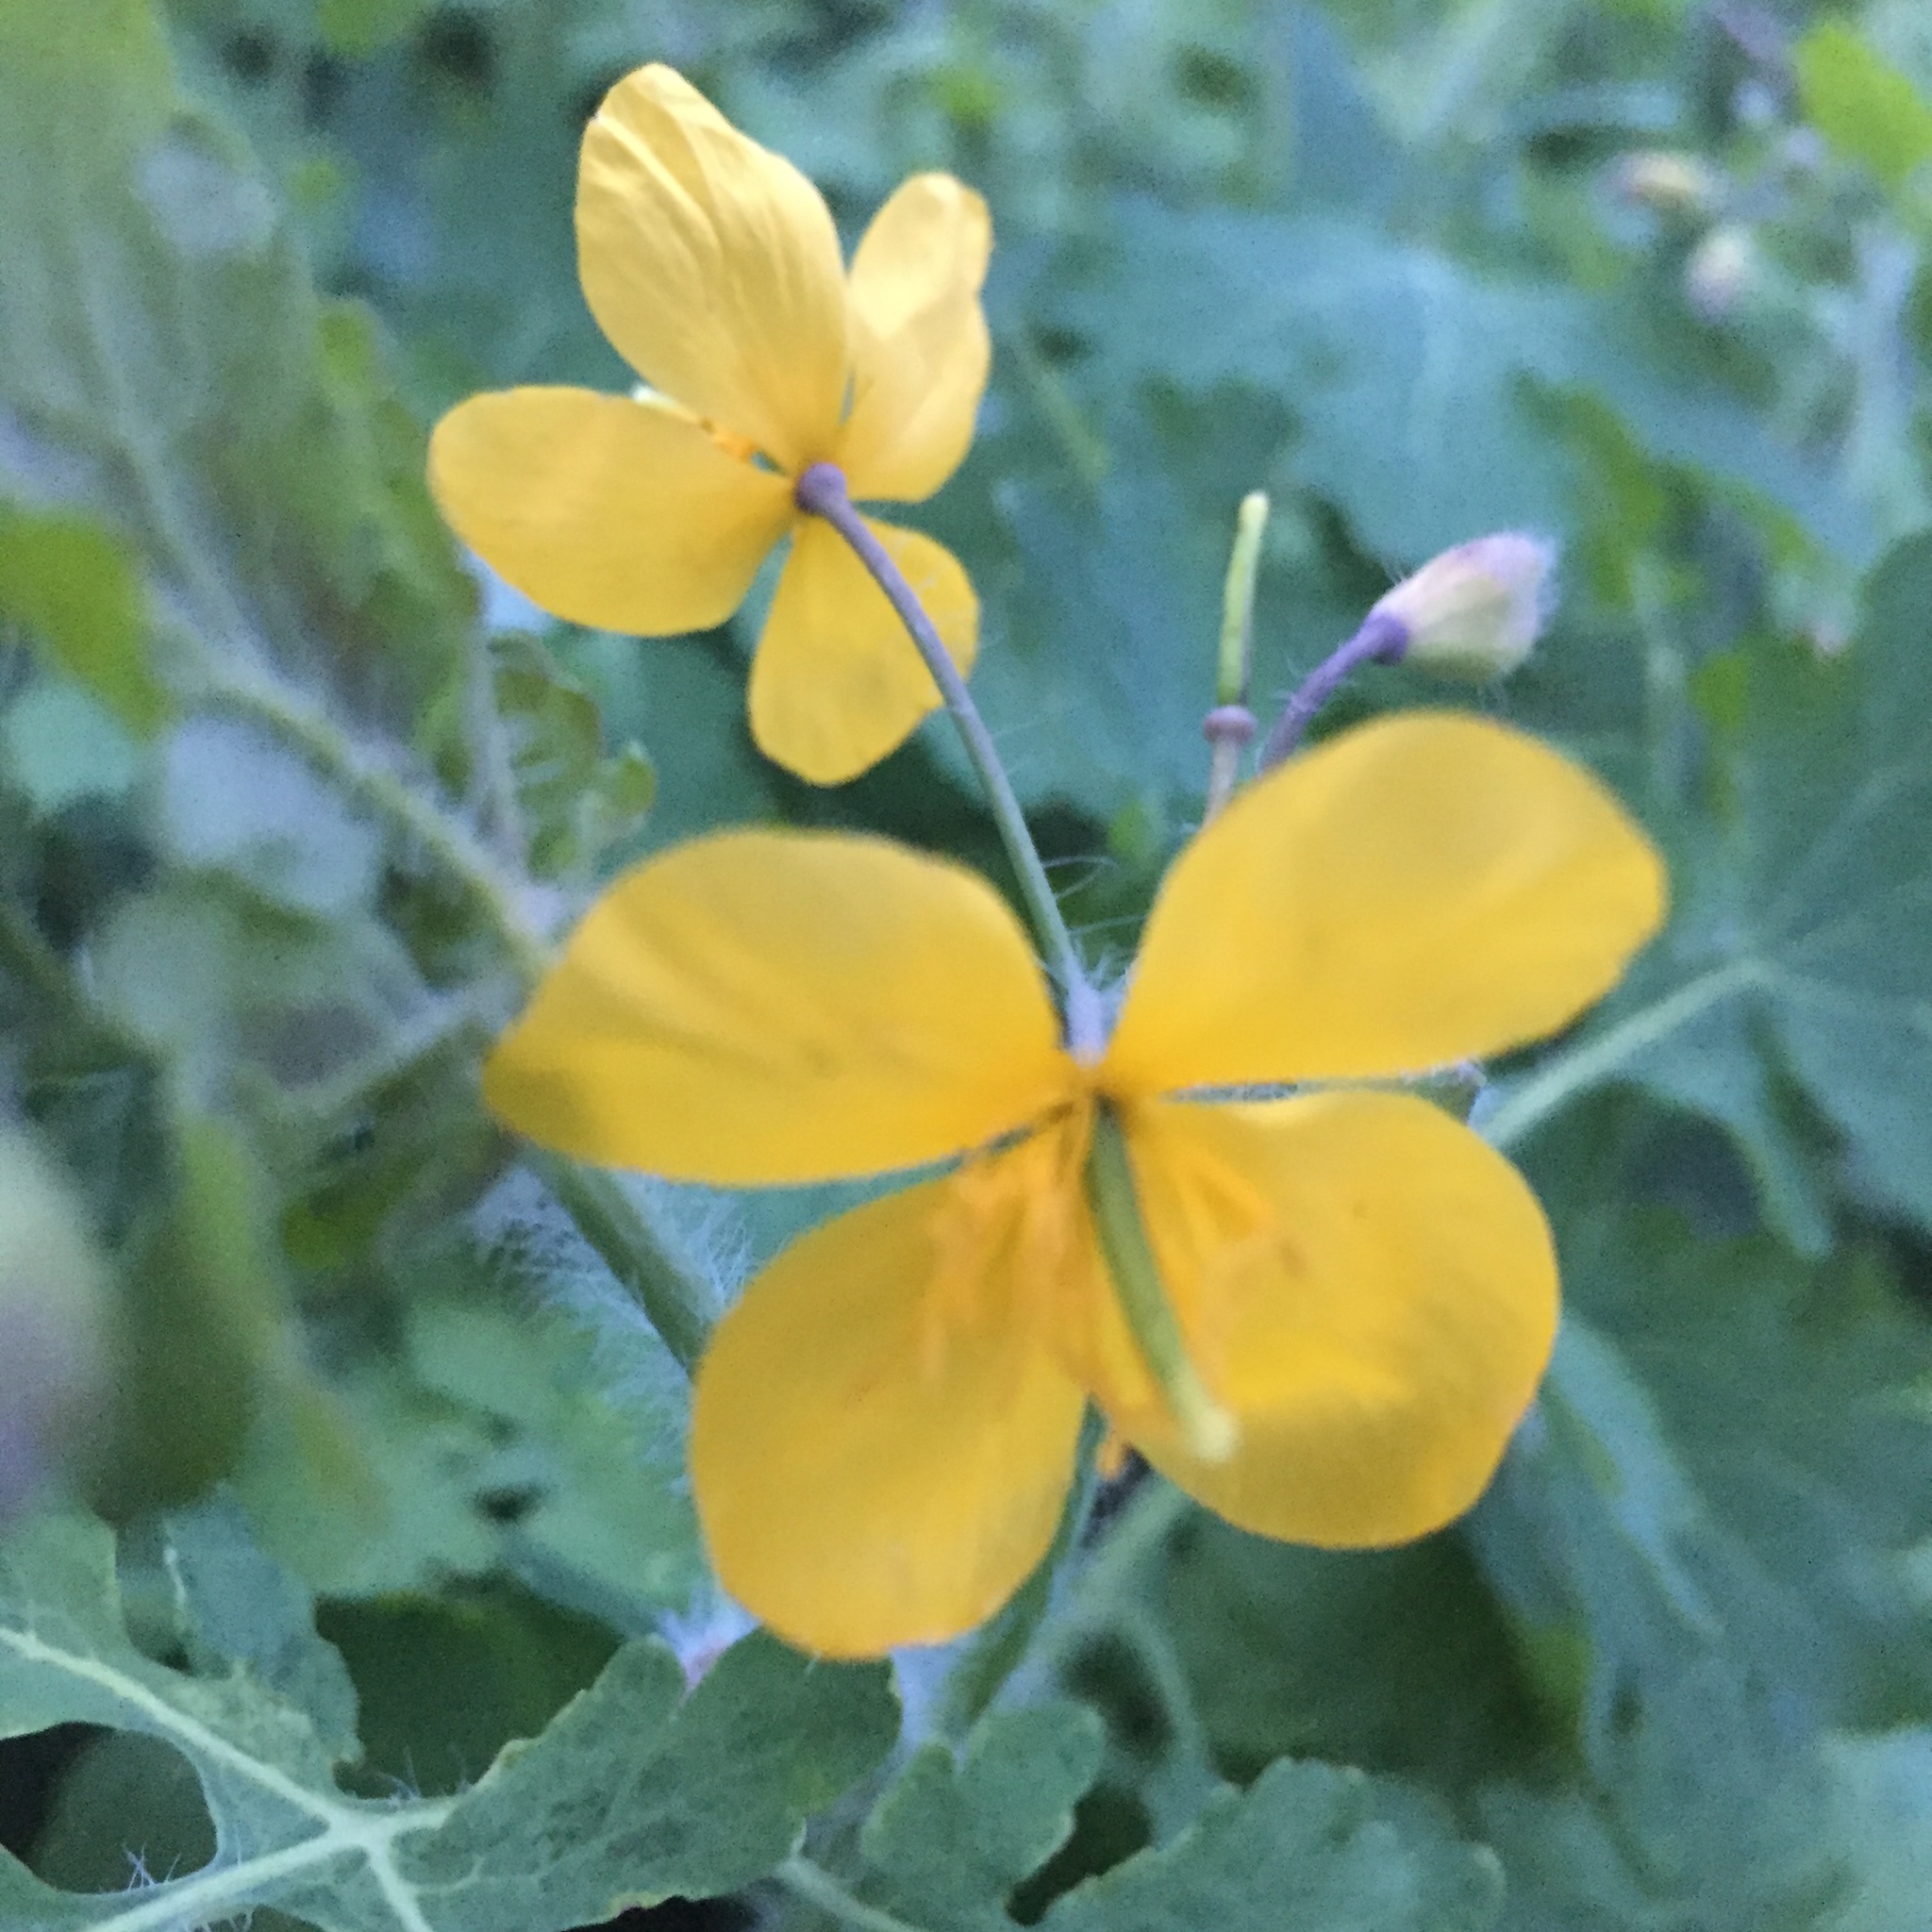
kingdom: Plantae
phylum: Tracheophyta
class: Magnoliopsida
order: Ranunculales
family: Papaveraceae
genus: Chelidonium
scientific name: Chelidonium majus
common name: Greater celandine
